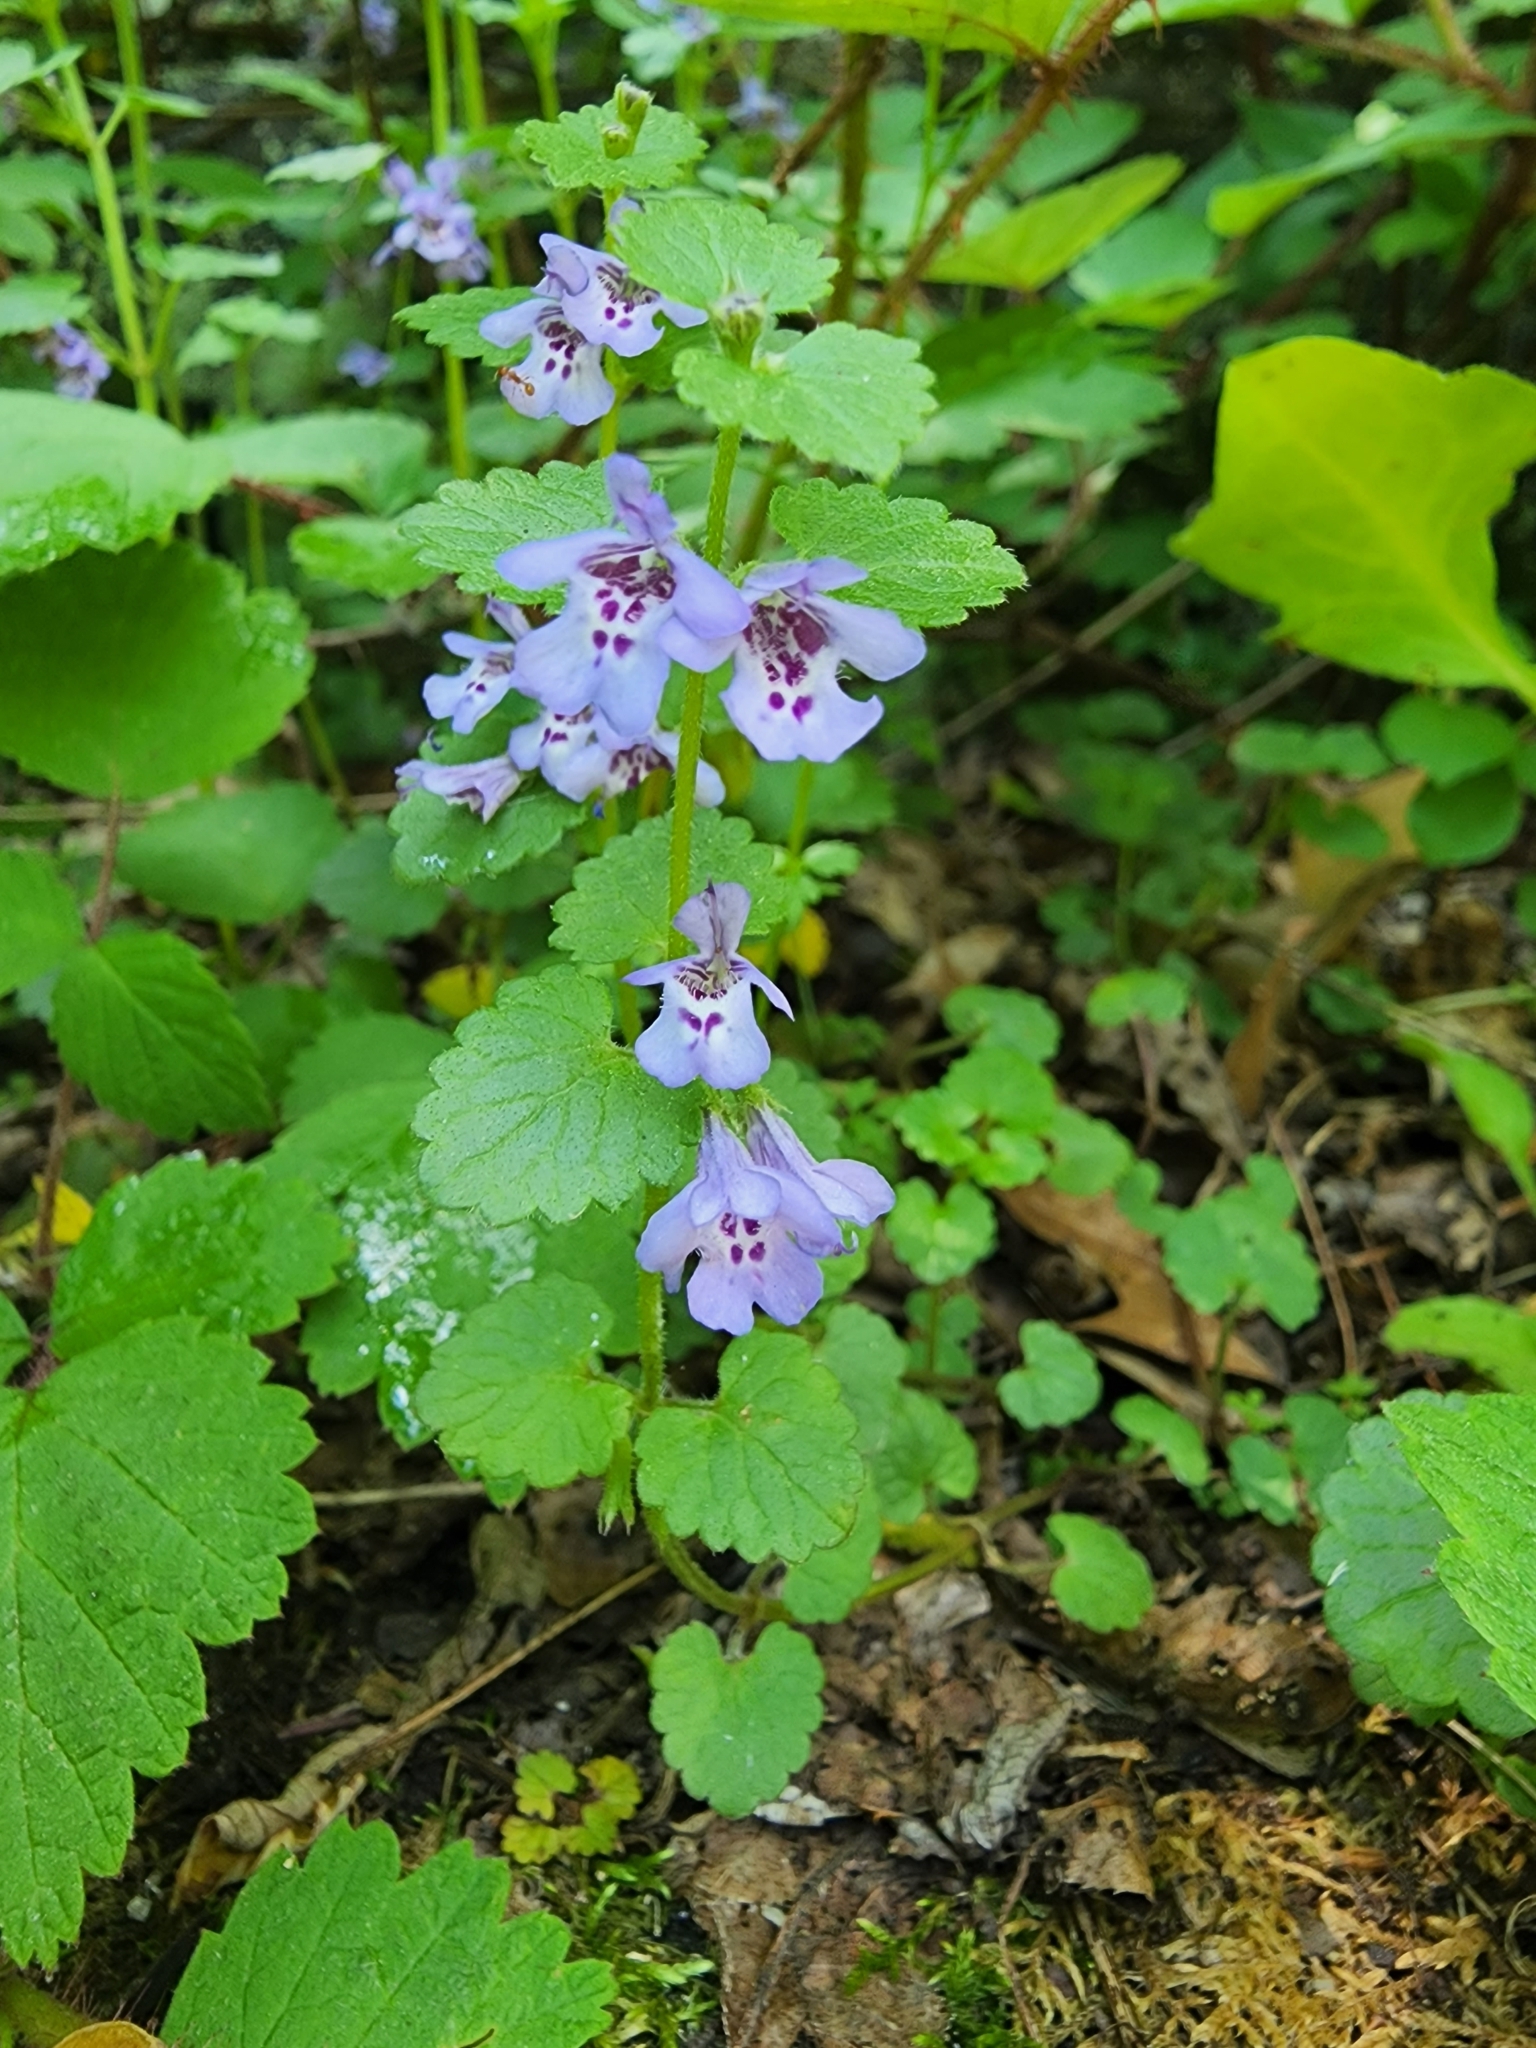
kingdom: Plantae
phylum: Tracheophyta
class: Magnoliopsida
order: Lamiales
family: Lamiaceae
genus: Glechoma
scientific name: Glechoma hederacea
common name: Ground ivy
